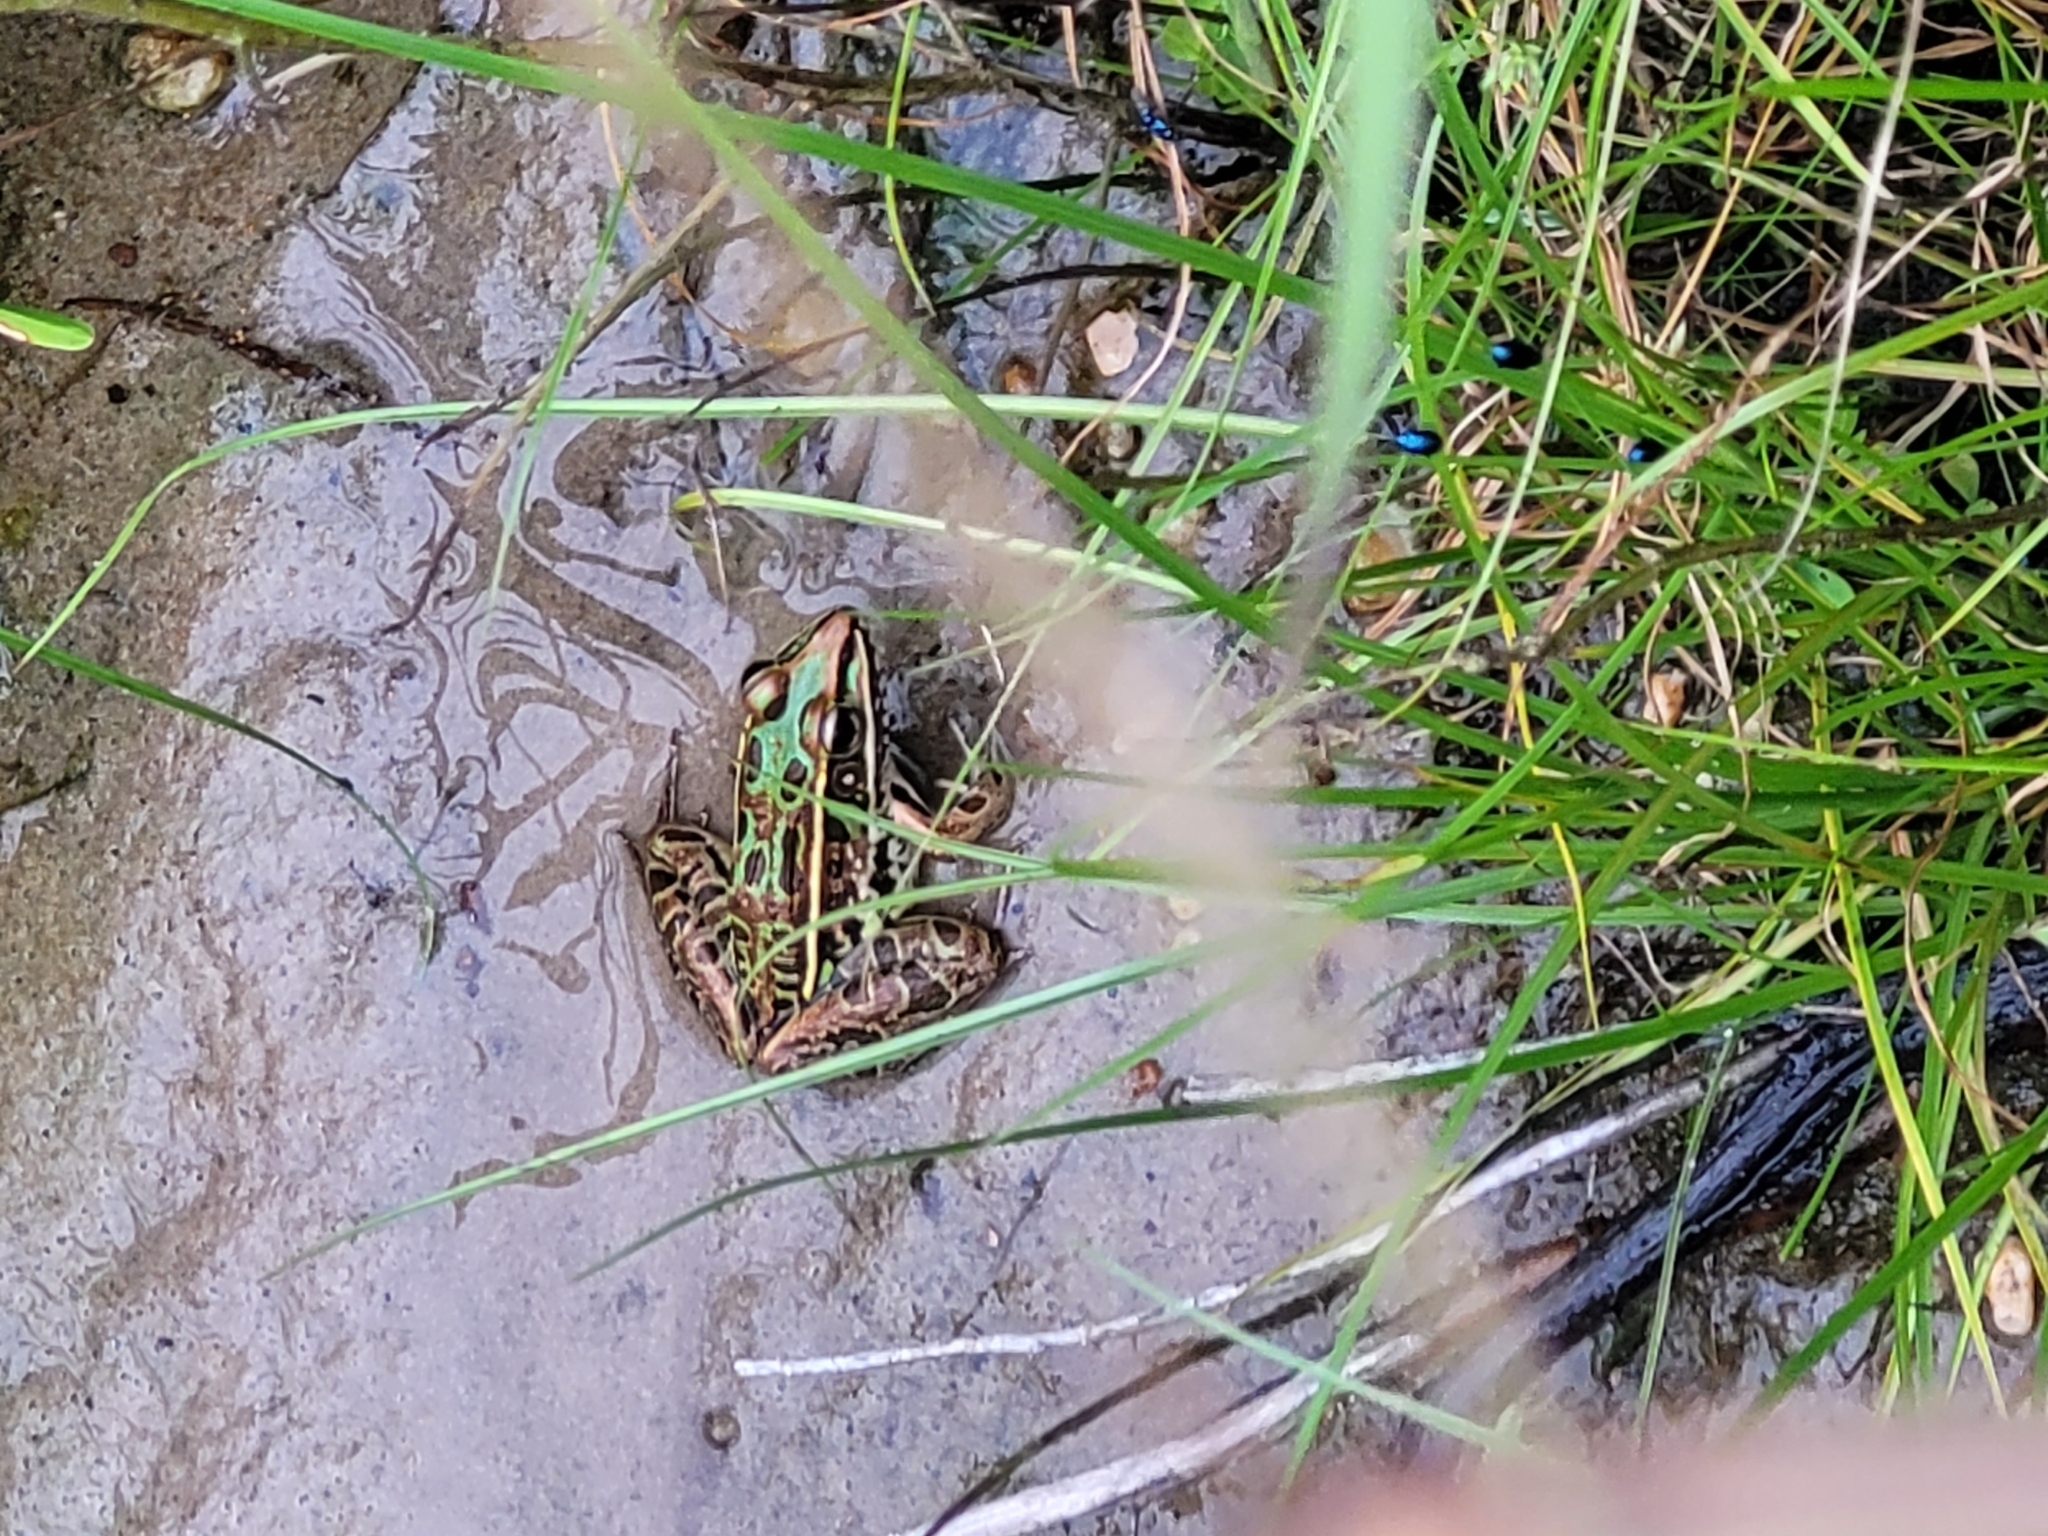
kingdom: Animalia
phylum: Chordata
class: Amphibia
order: Anura
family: Ranidae
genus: Lithobates
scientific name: Lithobates sphenocephalus
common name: Southern leopard frog
